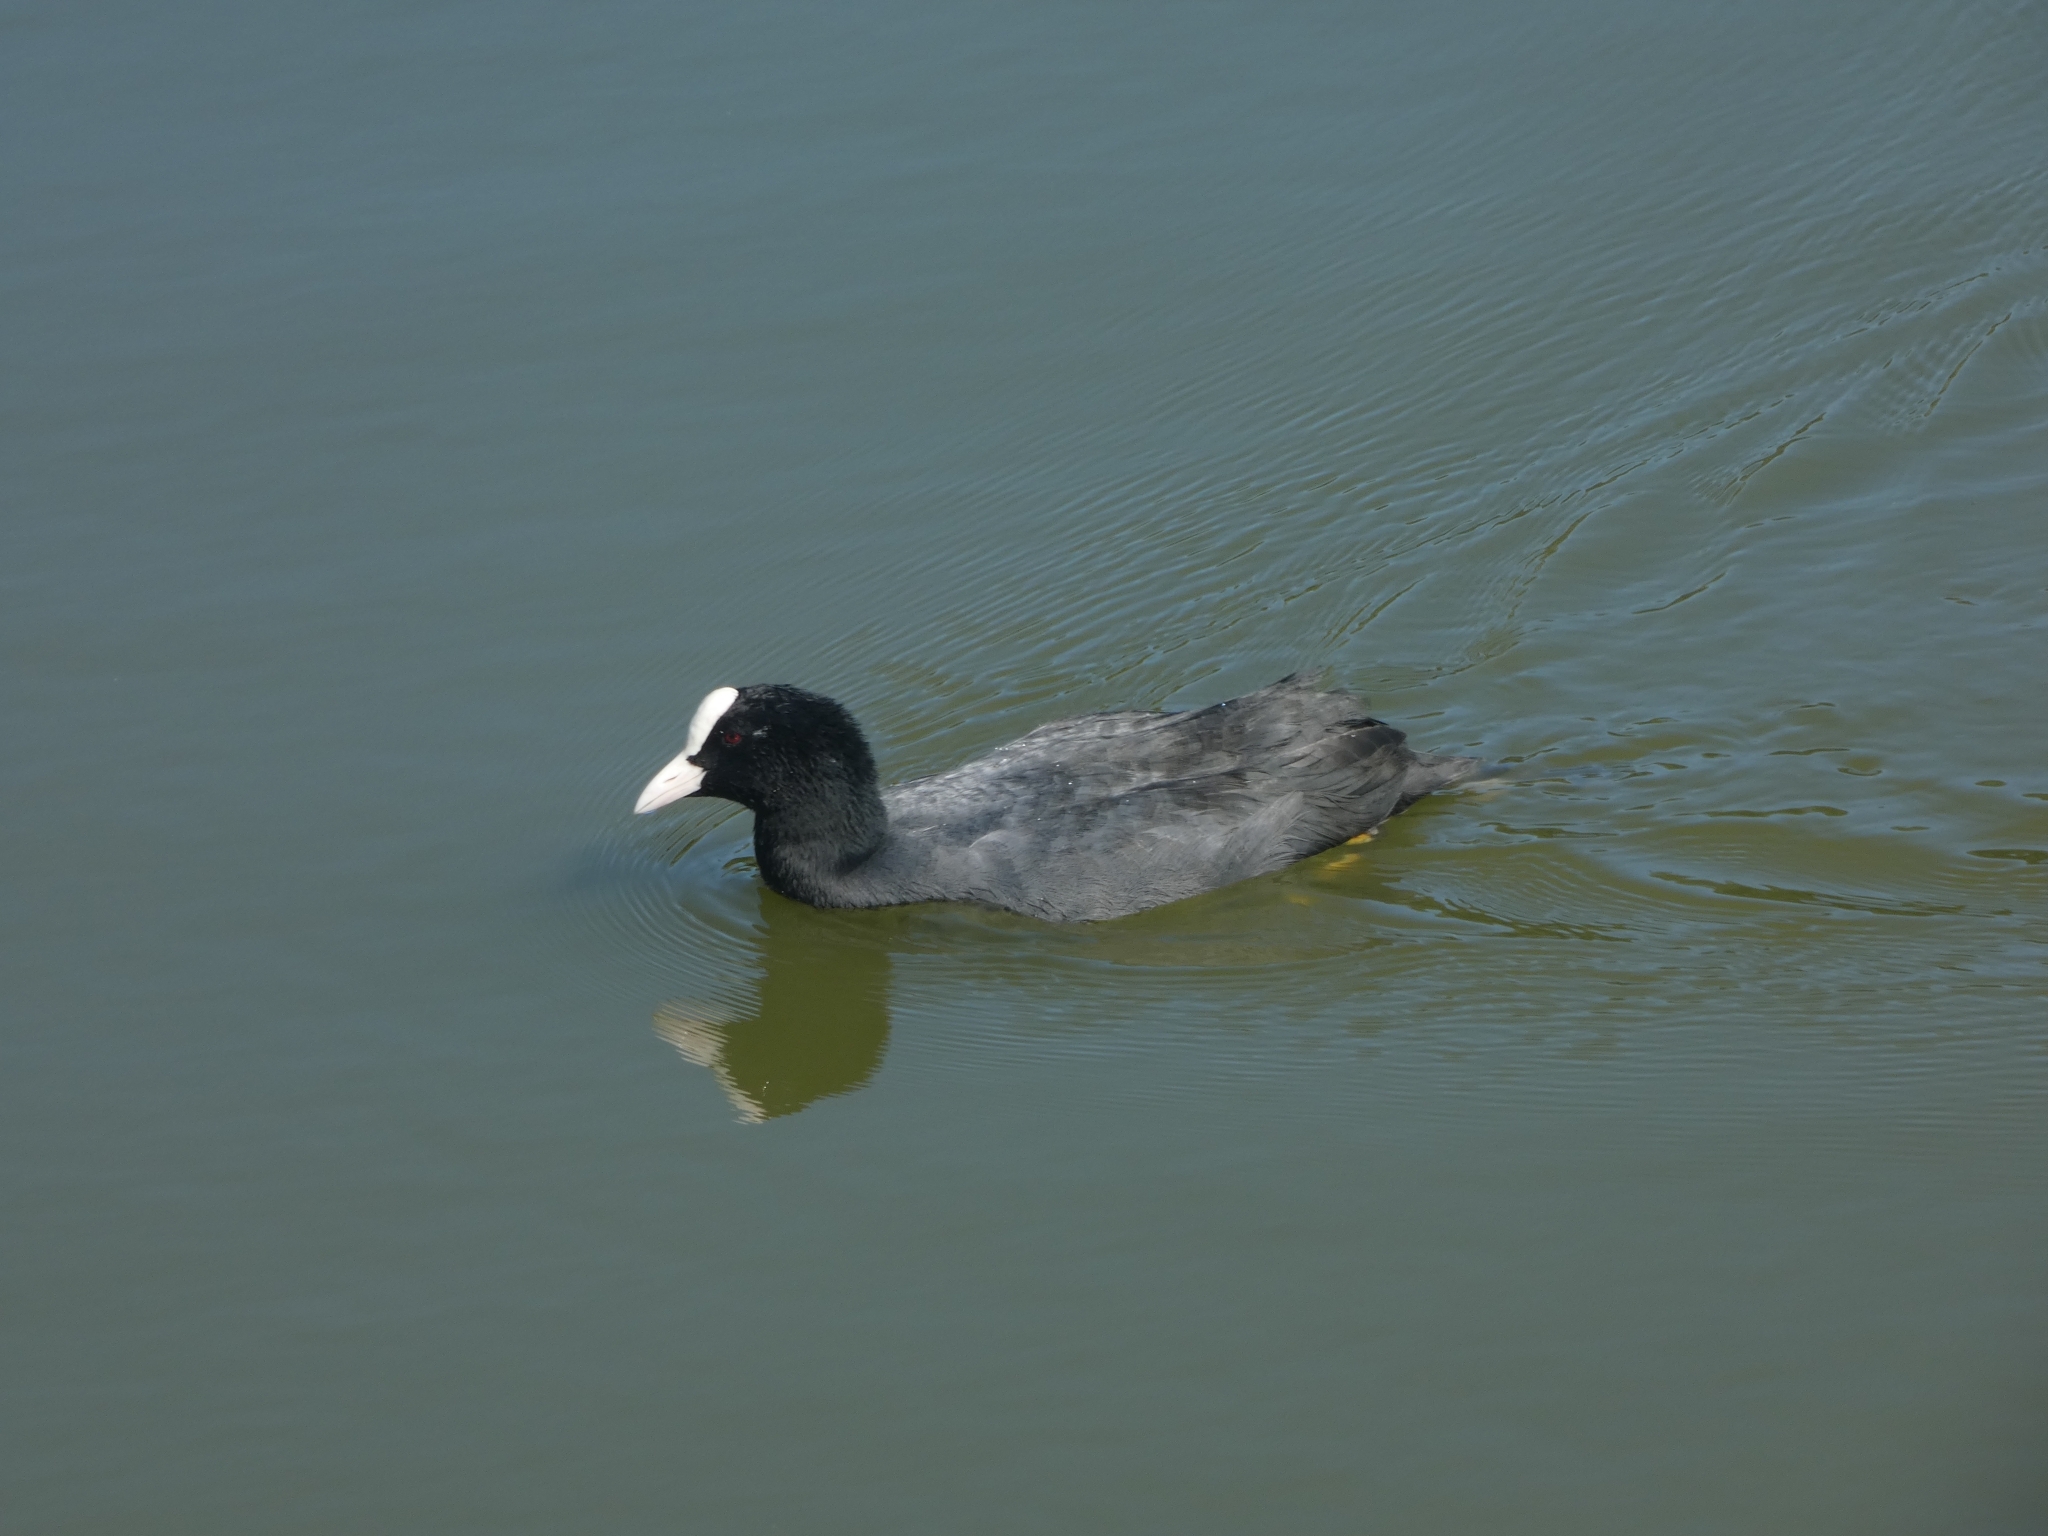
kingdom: Animalia
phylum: Chordata
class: Aves
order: Gruiformes
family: Rallidae
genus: Fulica
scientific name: Fulica atra
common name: Eurasian coot
